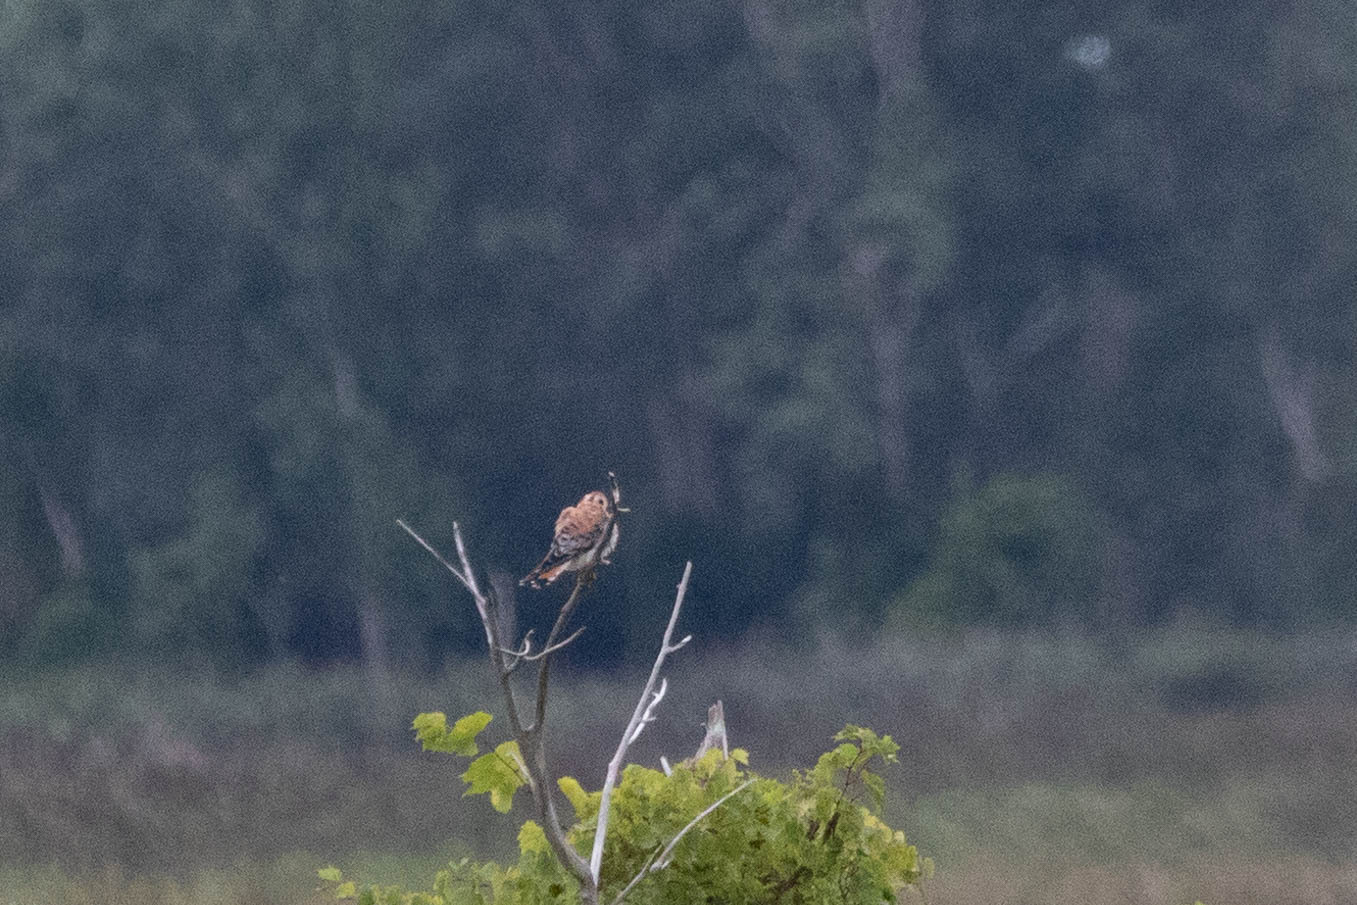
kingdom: Animalia
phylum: Chordata
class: Aves
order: Falconiformes
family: Falconidae
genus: Falco
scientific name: Falco sparverius
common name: American kestrel
